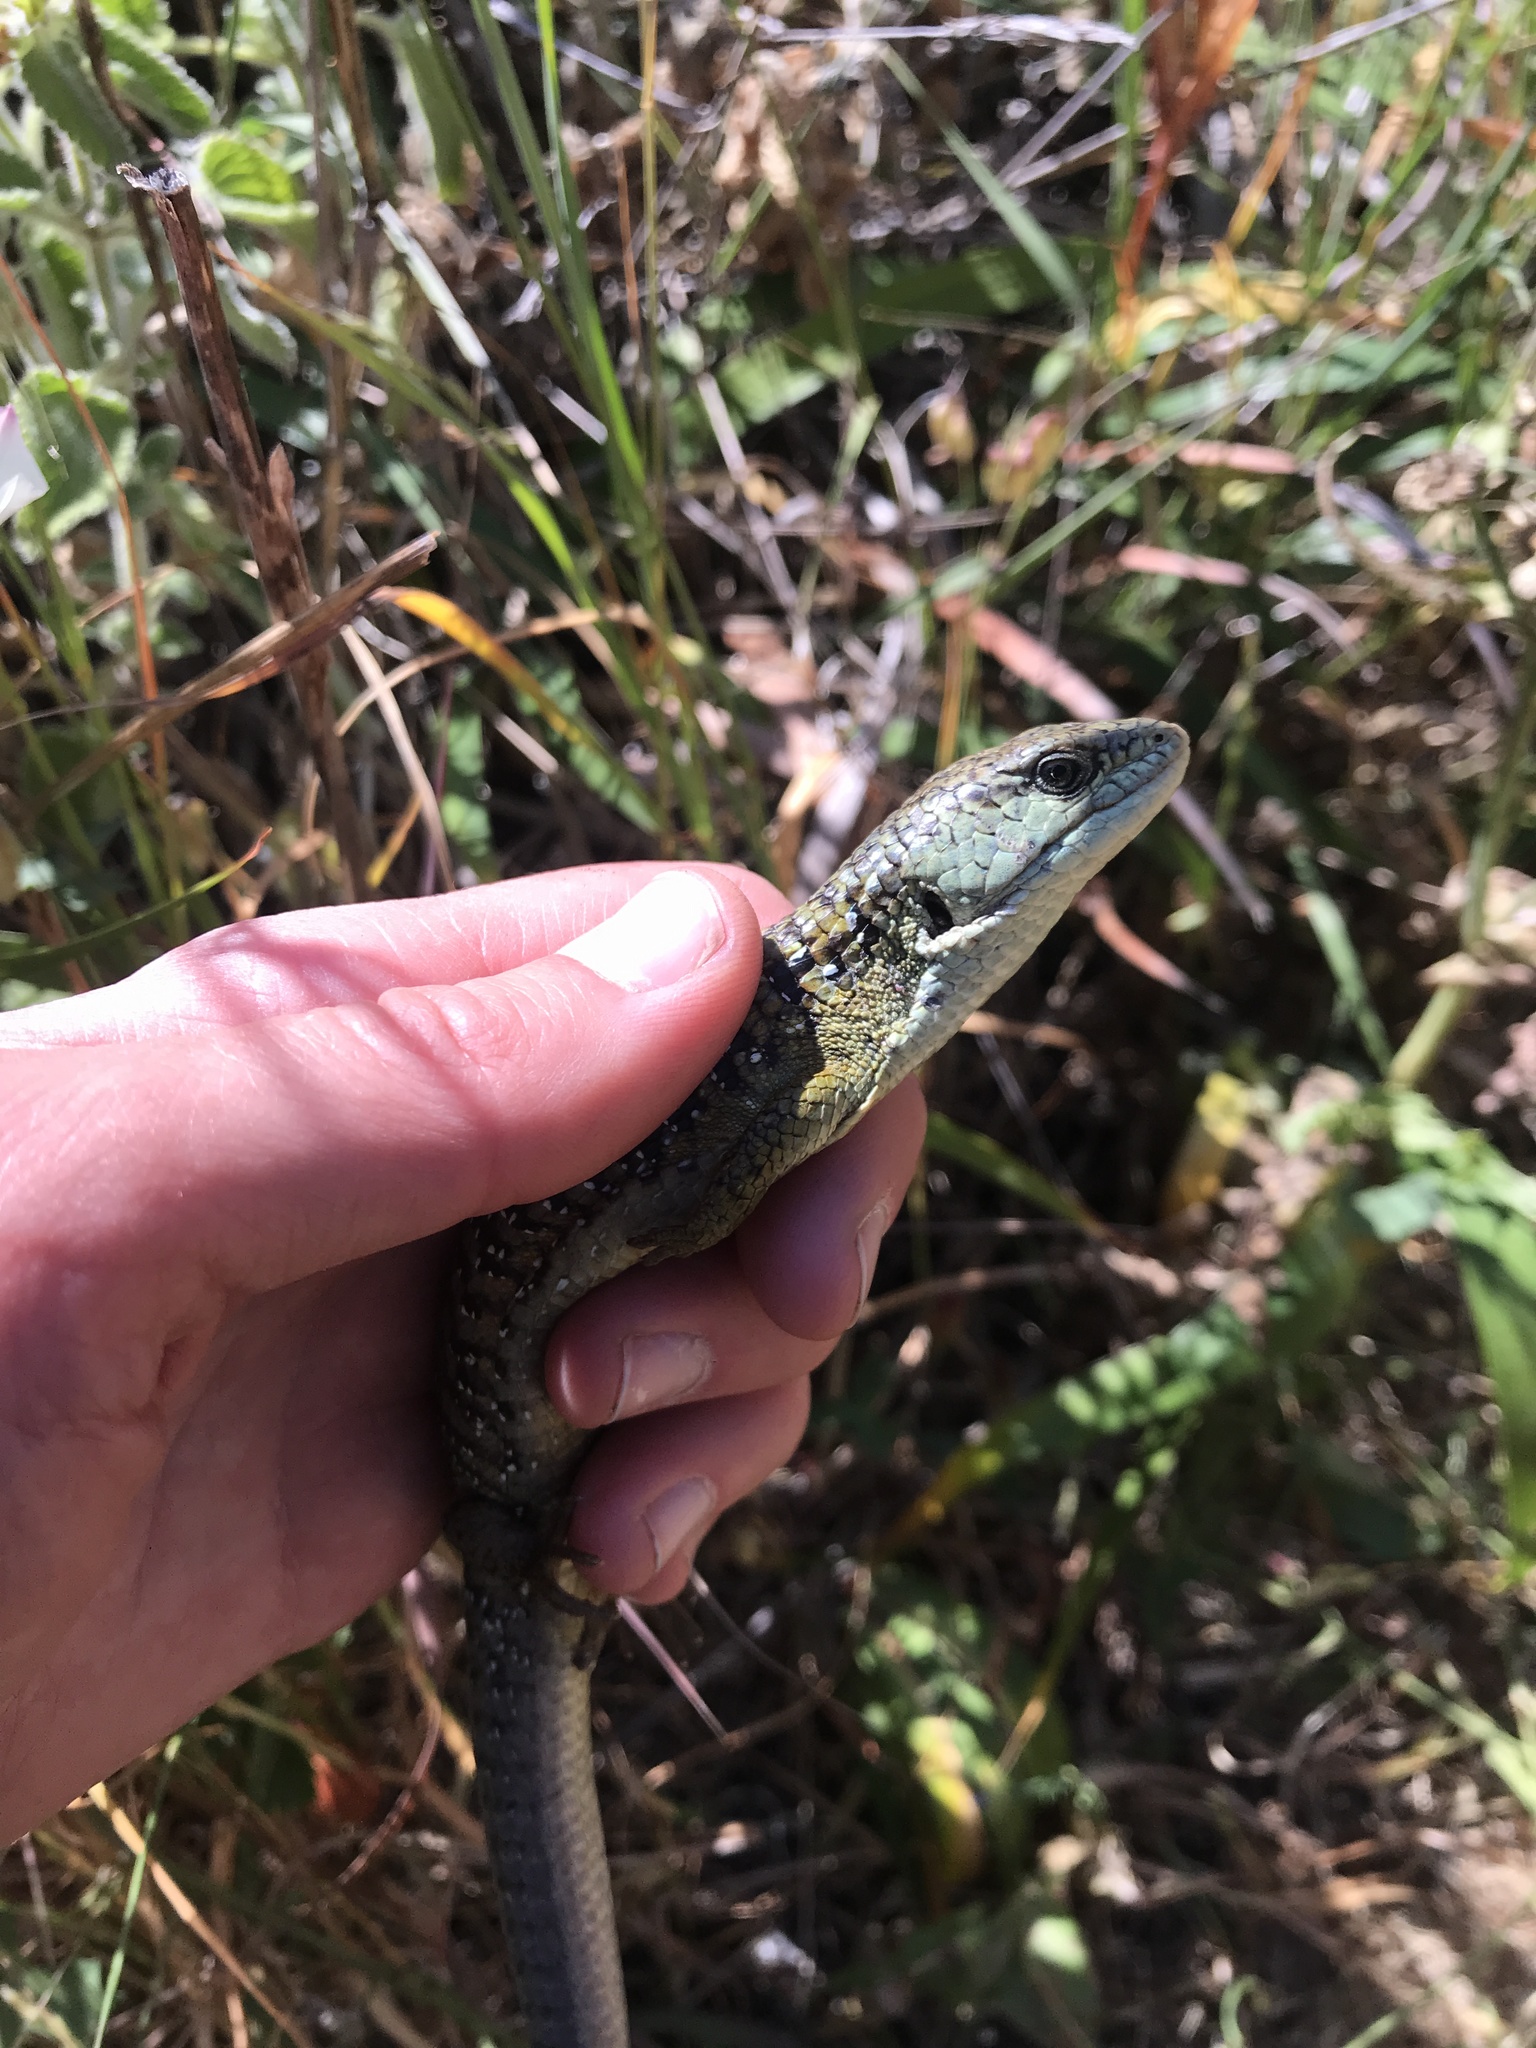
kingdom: Animalia
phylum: Chordata
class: Squamata
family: Anguidae
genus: Elgaria
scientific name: Elgaria coerulea
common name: Northern alligator lizard
